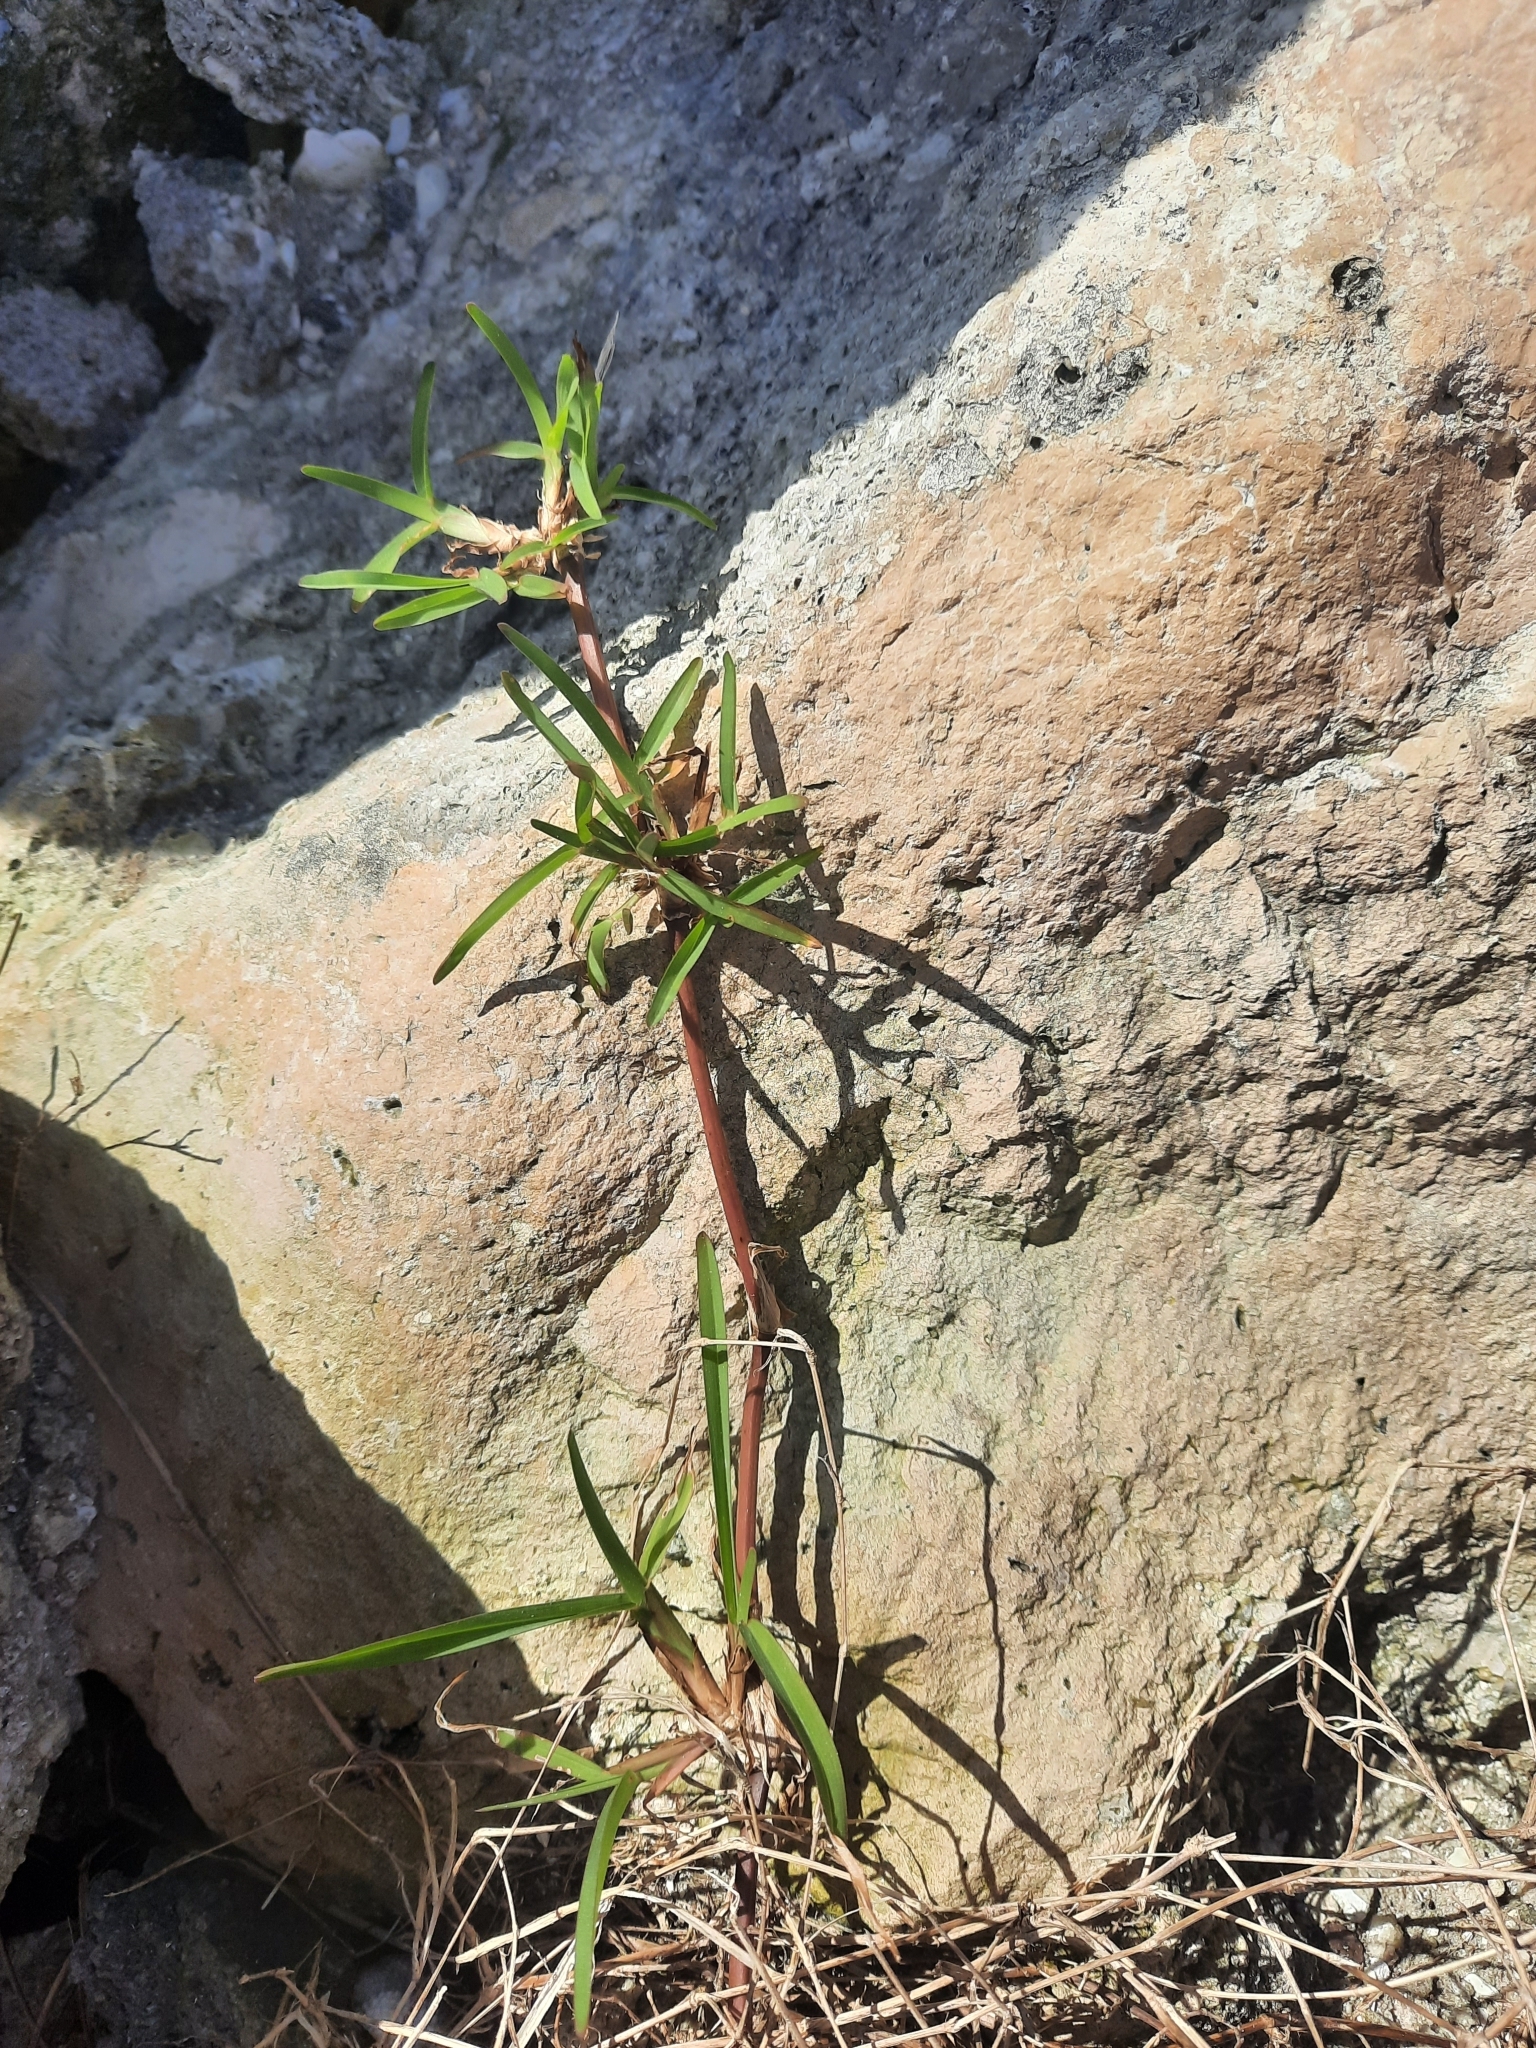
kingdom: Plantae
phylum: Tracheophyta
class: Liliopsida
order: Poales
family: Poaceae
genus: Stenotaphrum
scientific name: Stenotaphrum secundatum
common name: St. augustine grass
